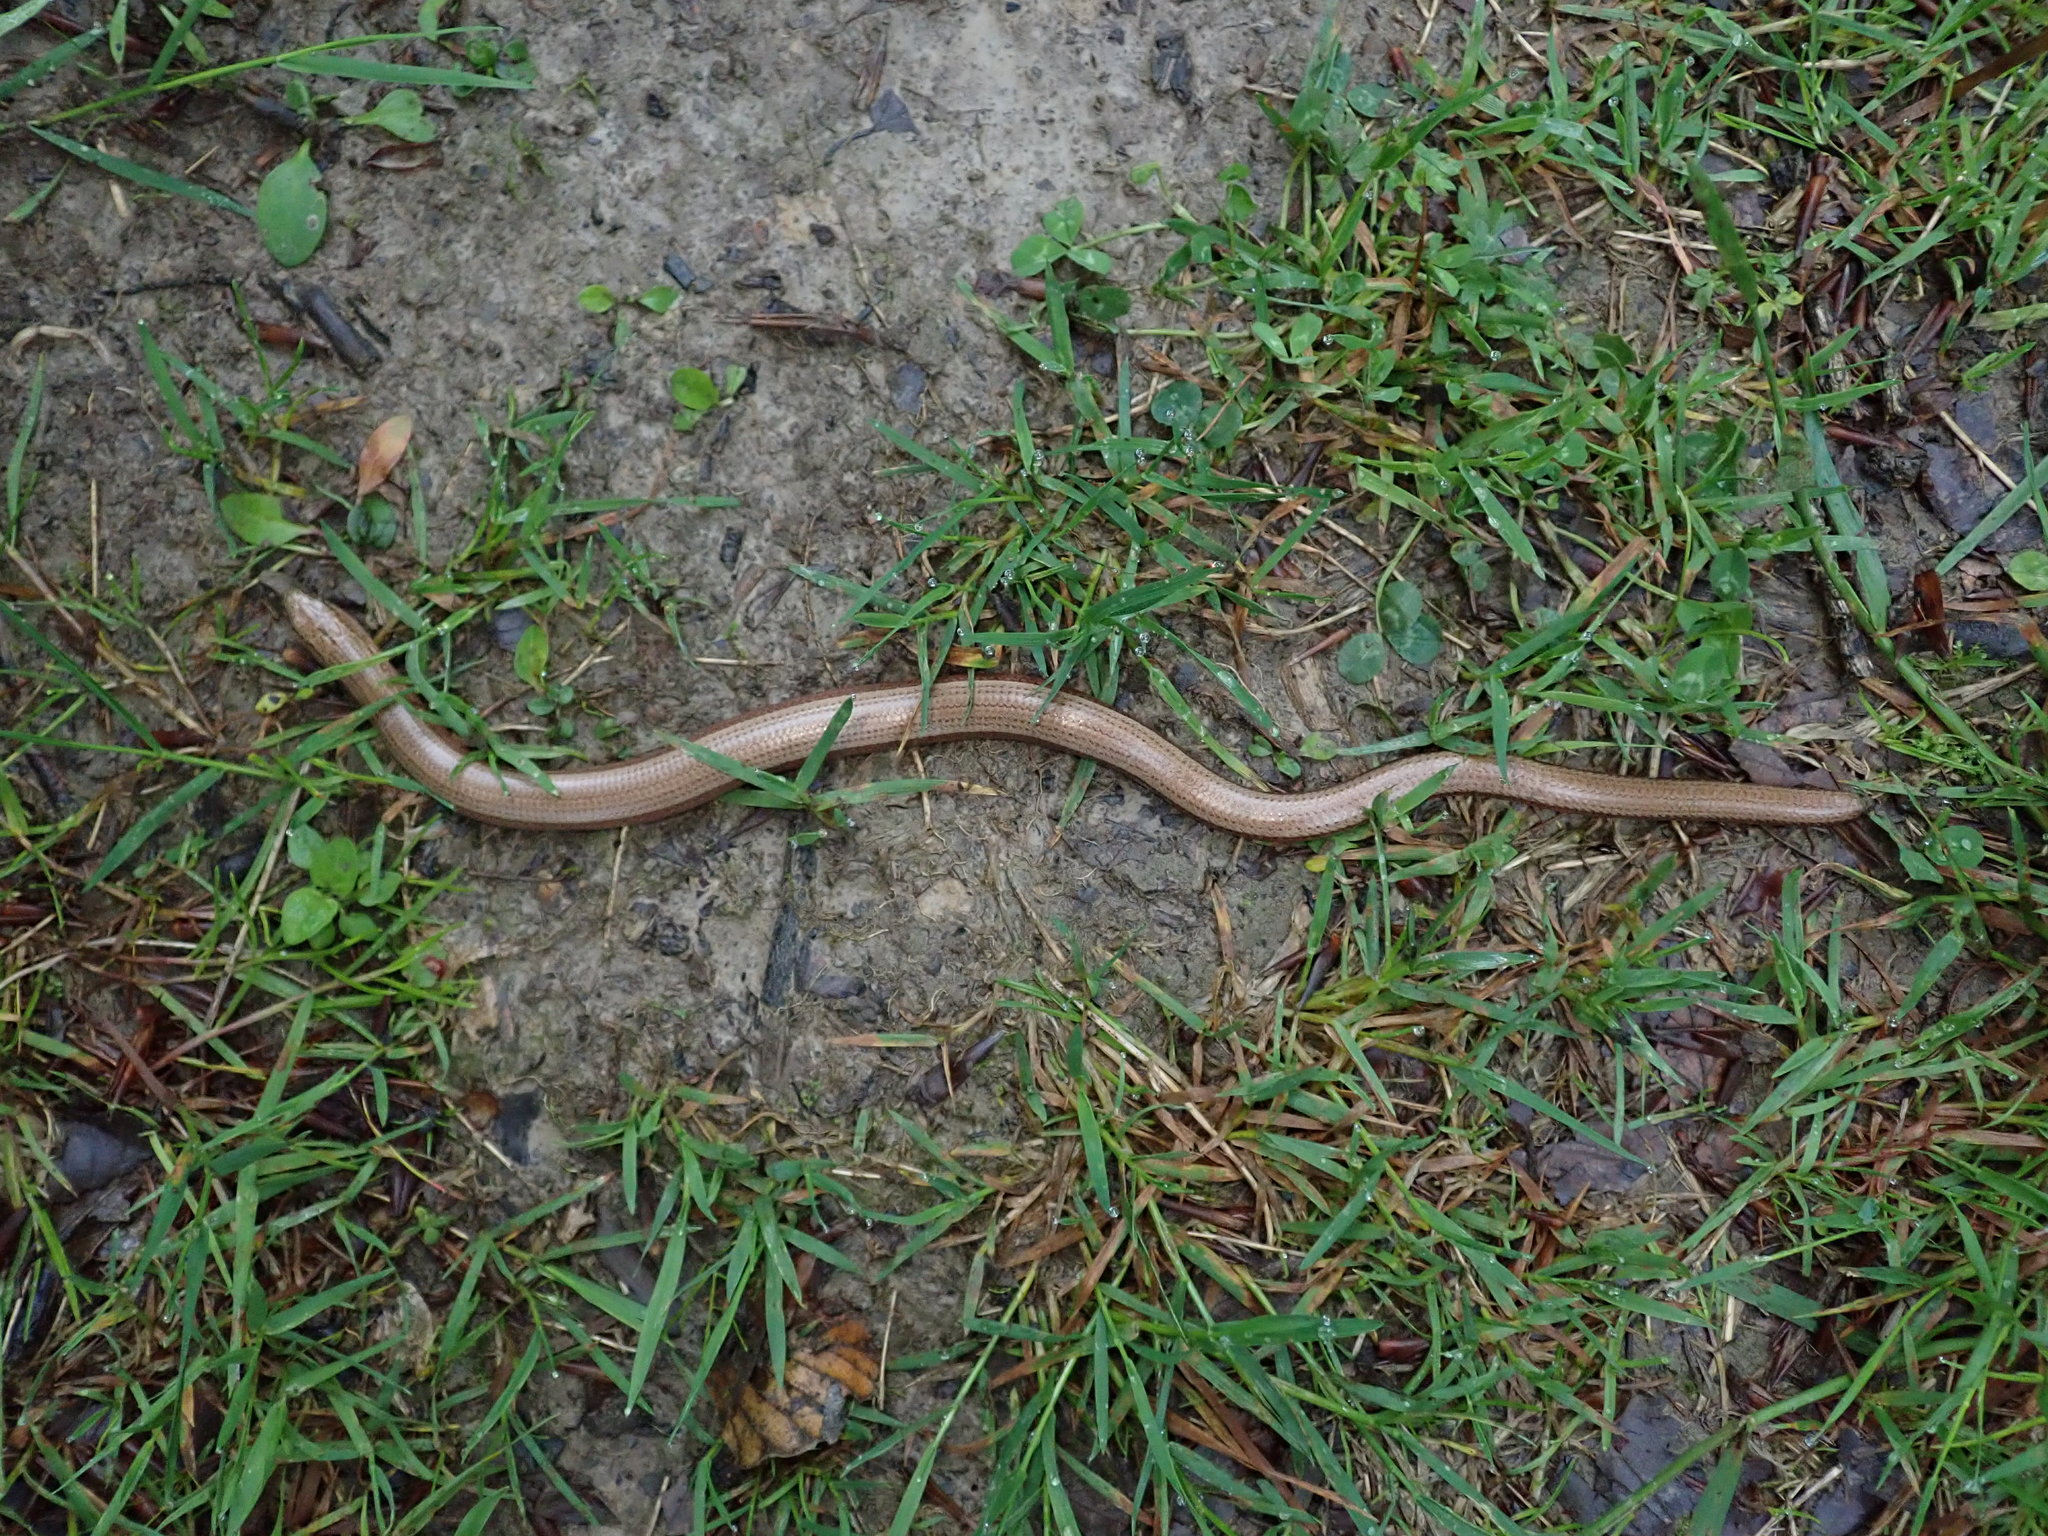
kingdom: Animalia
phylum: Chordata
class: Squamata
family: Anguidae
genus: Anguis
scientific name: Anguis fragilis
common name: Slow worm
